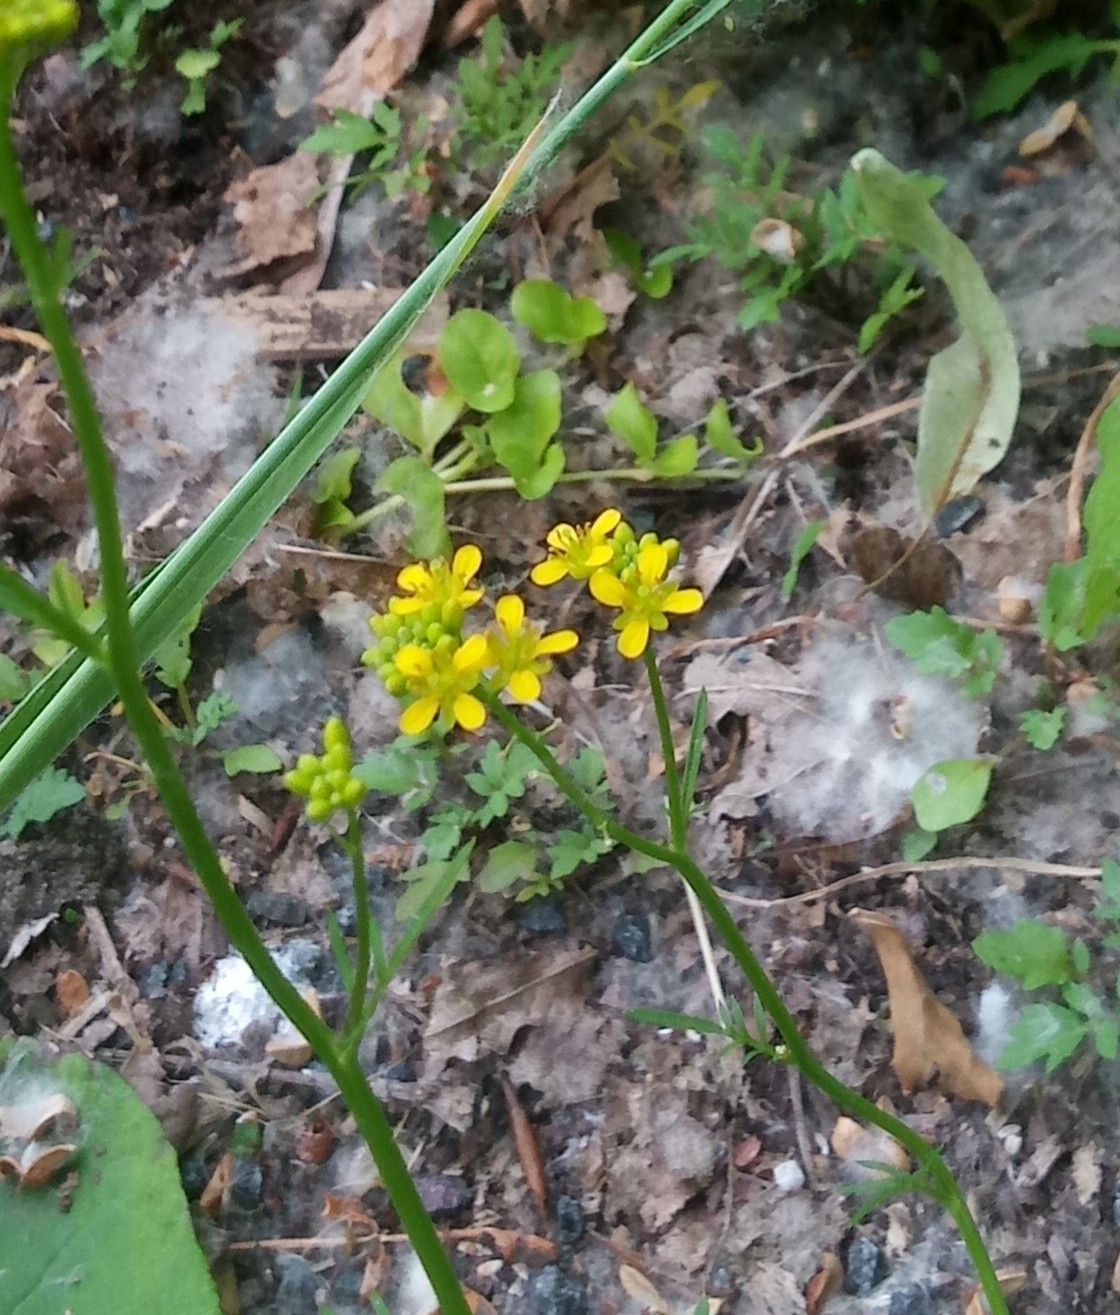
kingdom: Plantae
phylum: Tracheophyta
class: Magnoliopsida
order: Brassicales
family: Brassicaceae
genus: Rorippa
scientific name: Rorippa sylvestris
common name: Creeping yellowcress
